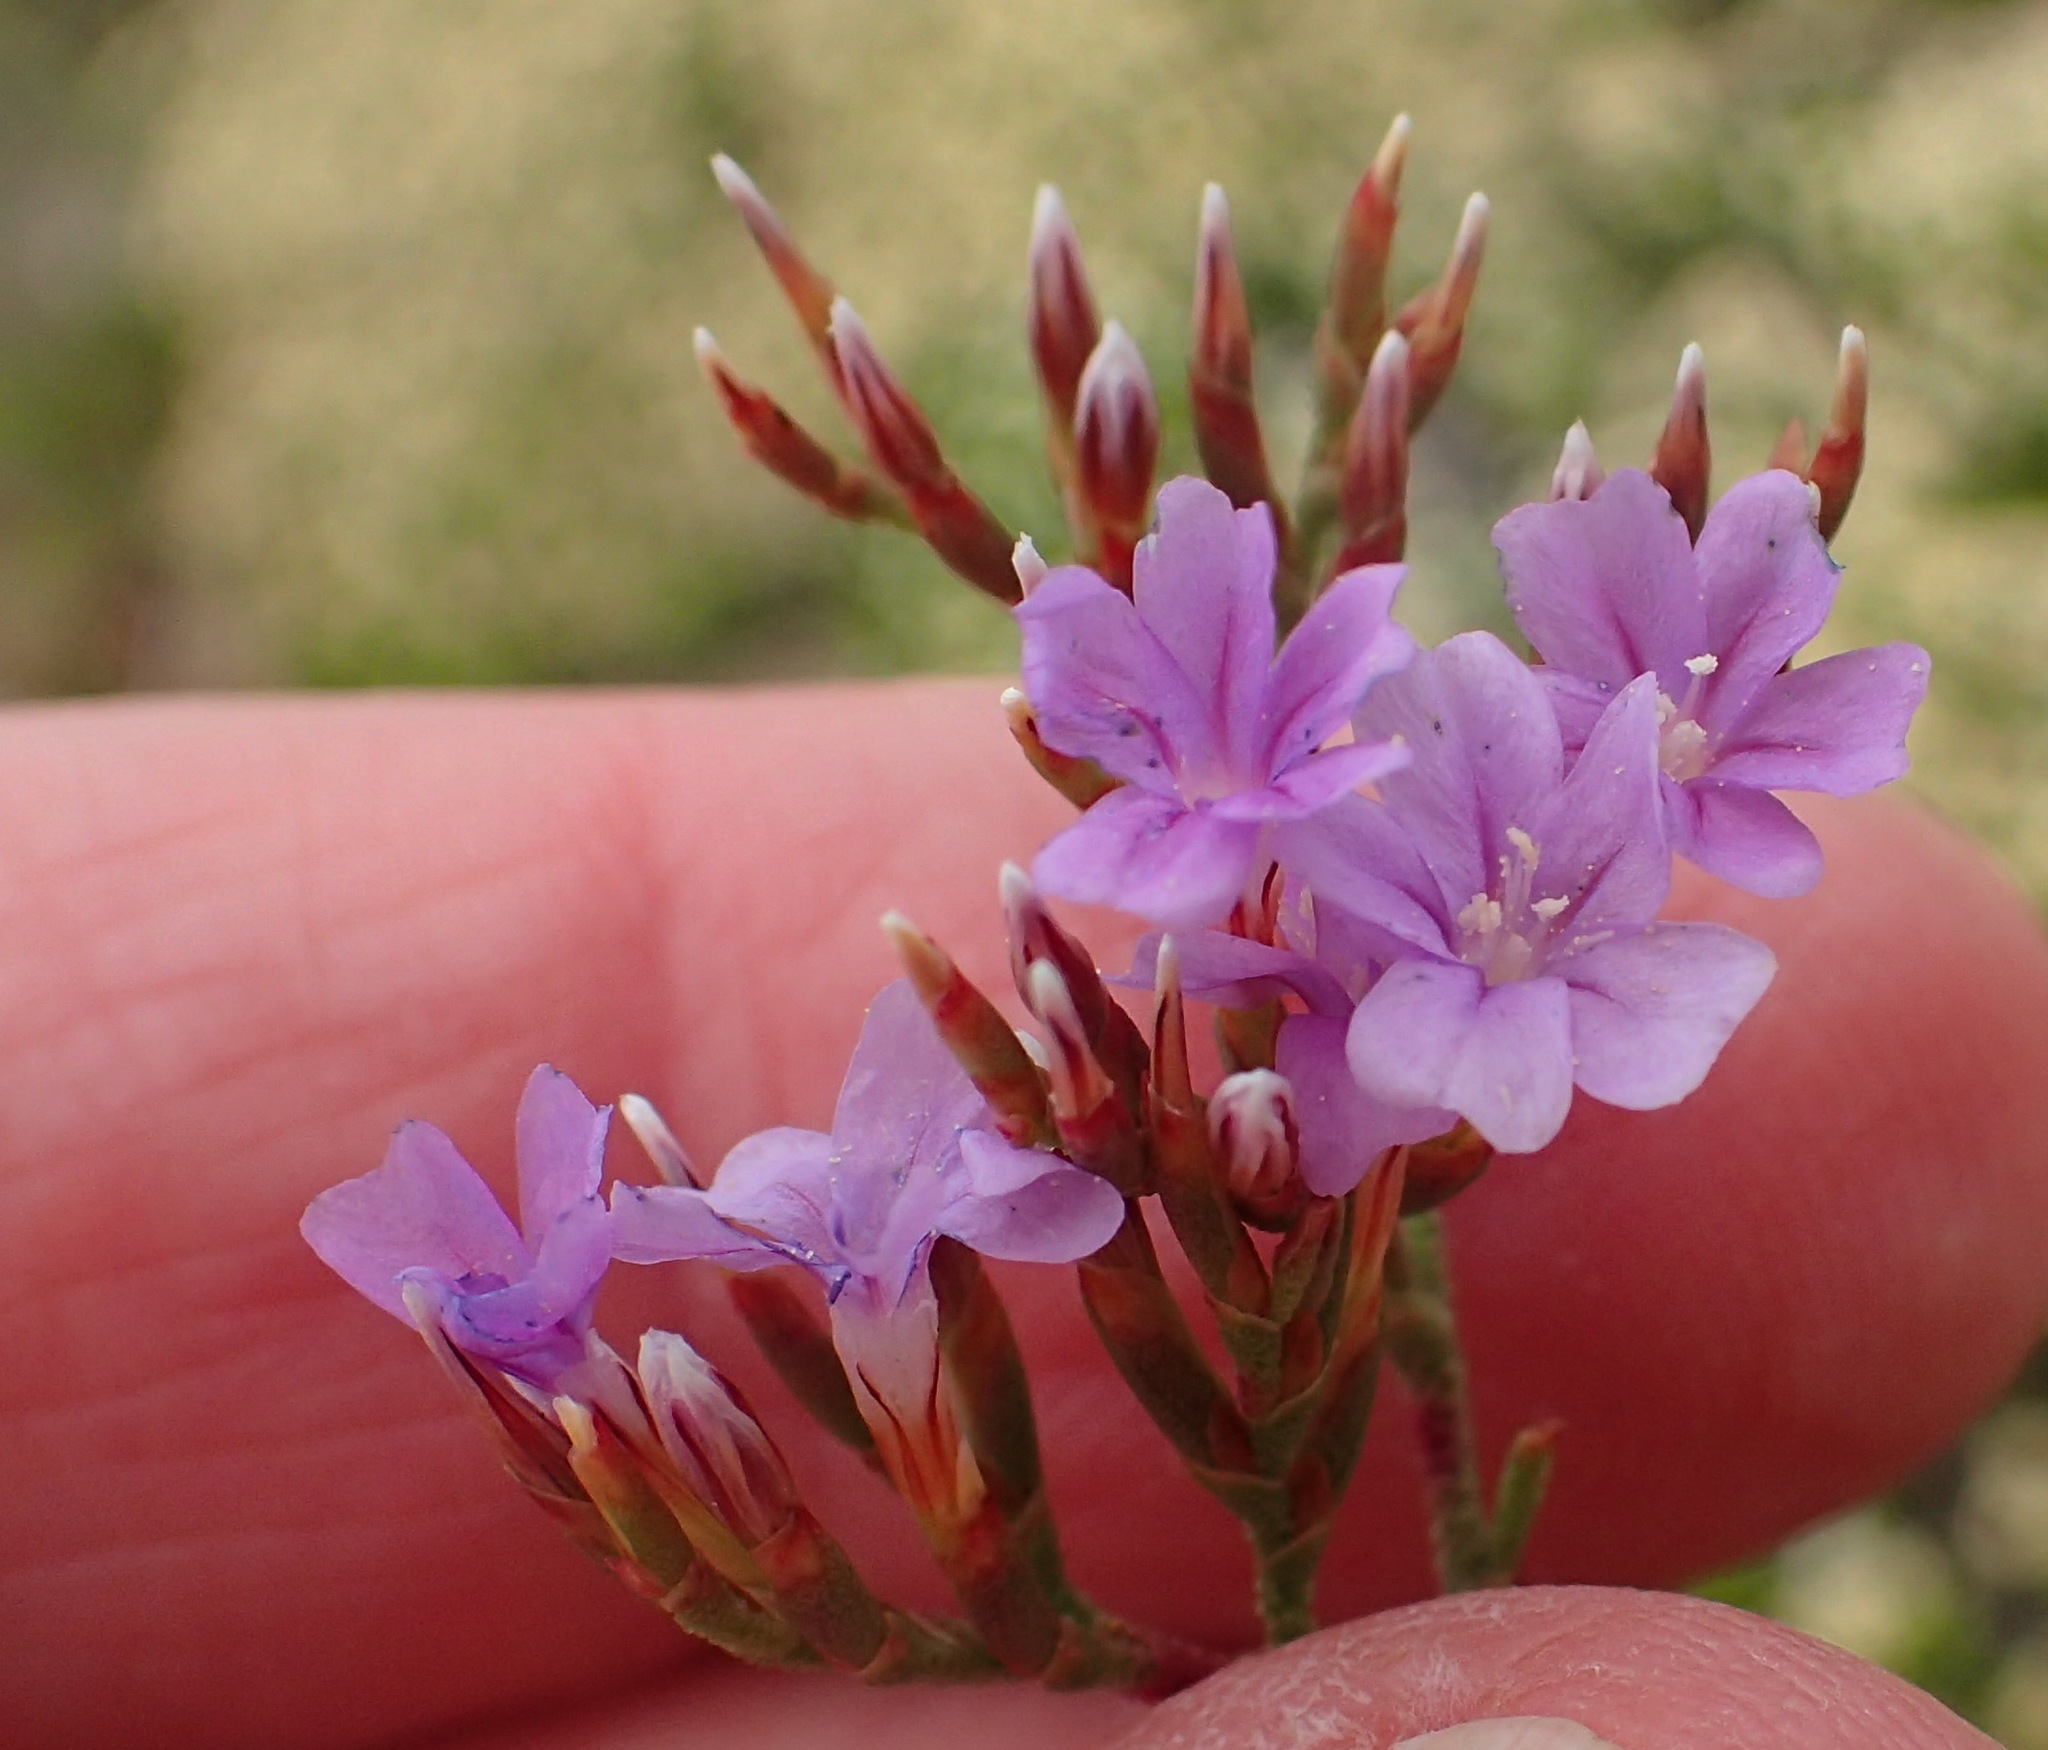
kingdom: Plantae
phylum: Tracheophyta
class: Magnoliopsida
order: Caryophyllales
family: Plumbaginaceae
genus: Limonium
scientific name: Limonium scabrum
